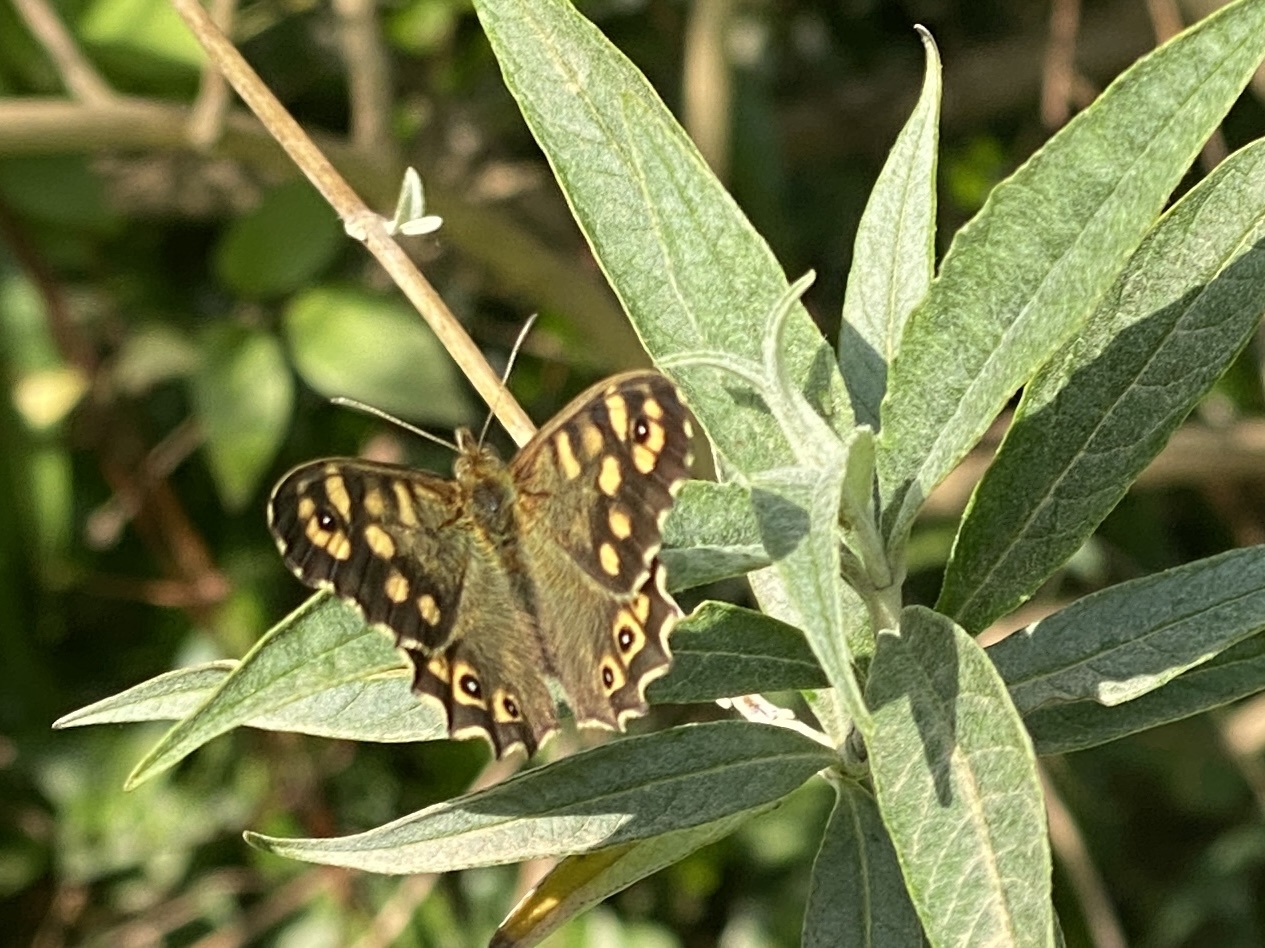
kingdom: Animalia
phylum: Arthropoda
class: Insecta
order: Lepidoptera
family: Nymphalidae
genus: Pararge
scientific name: Pararge aegeria
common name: Speckled wood
